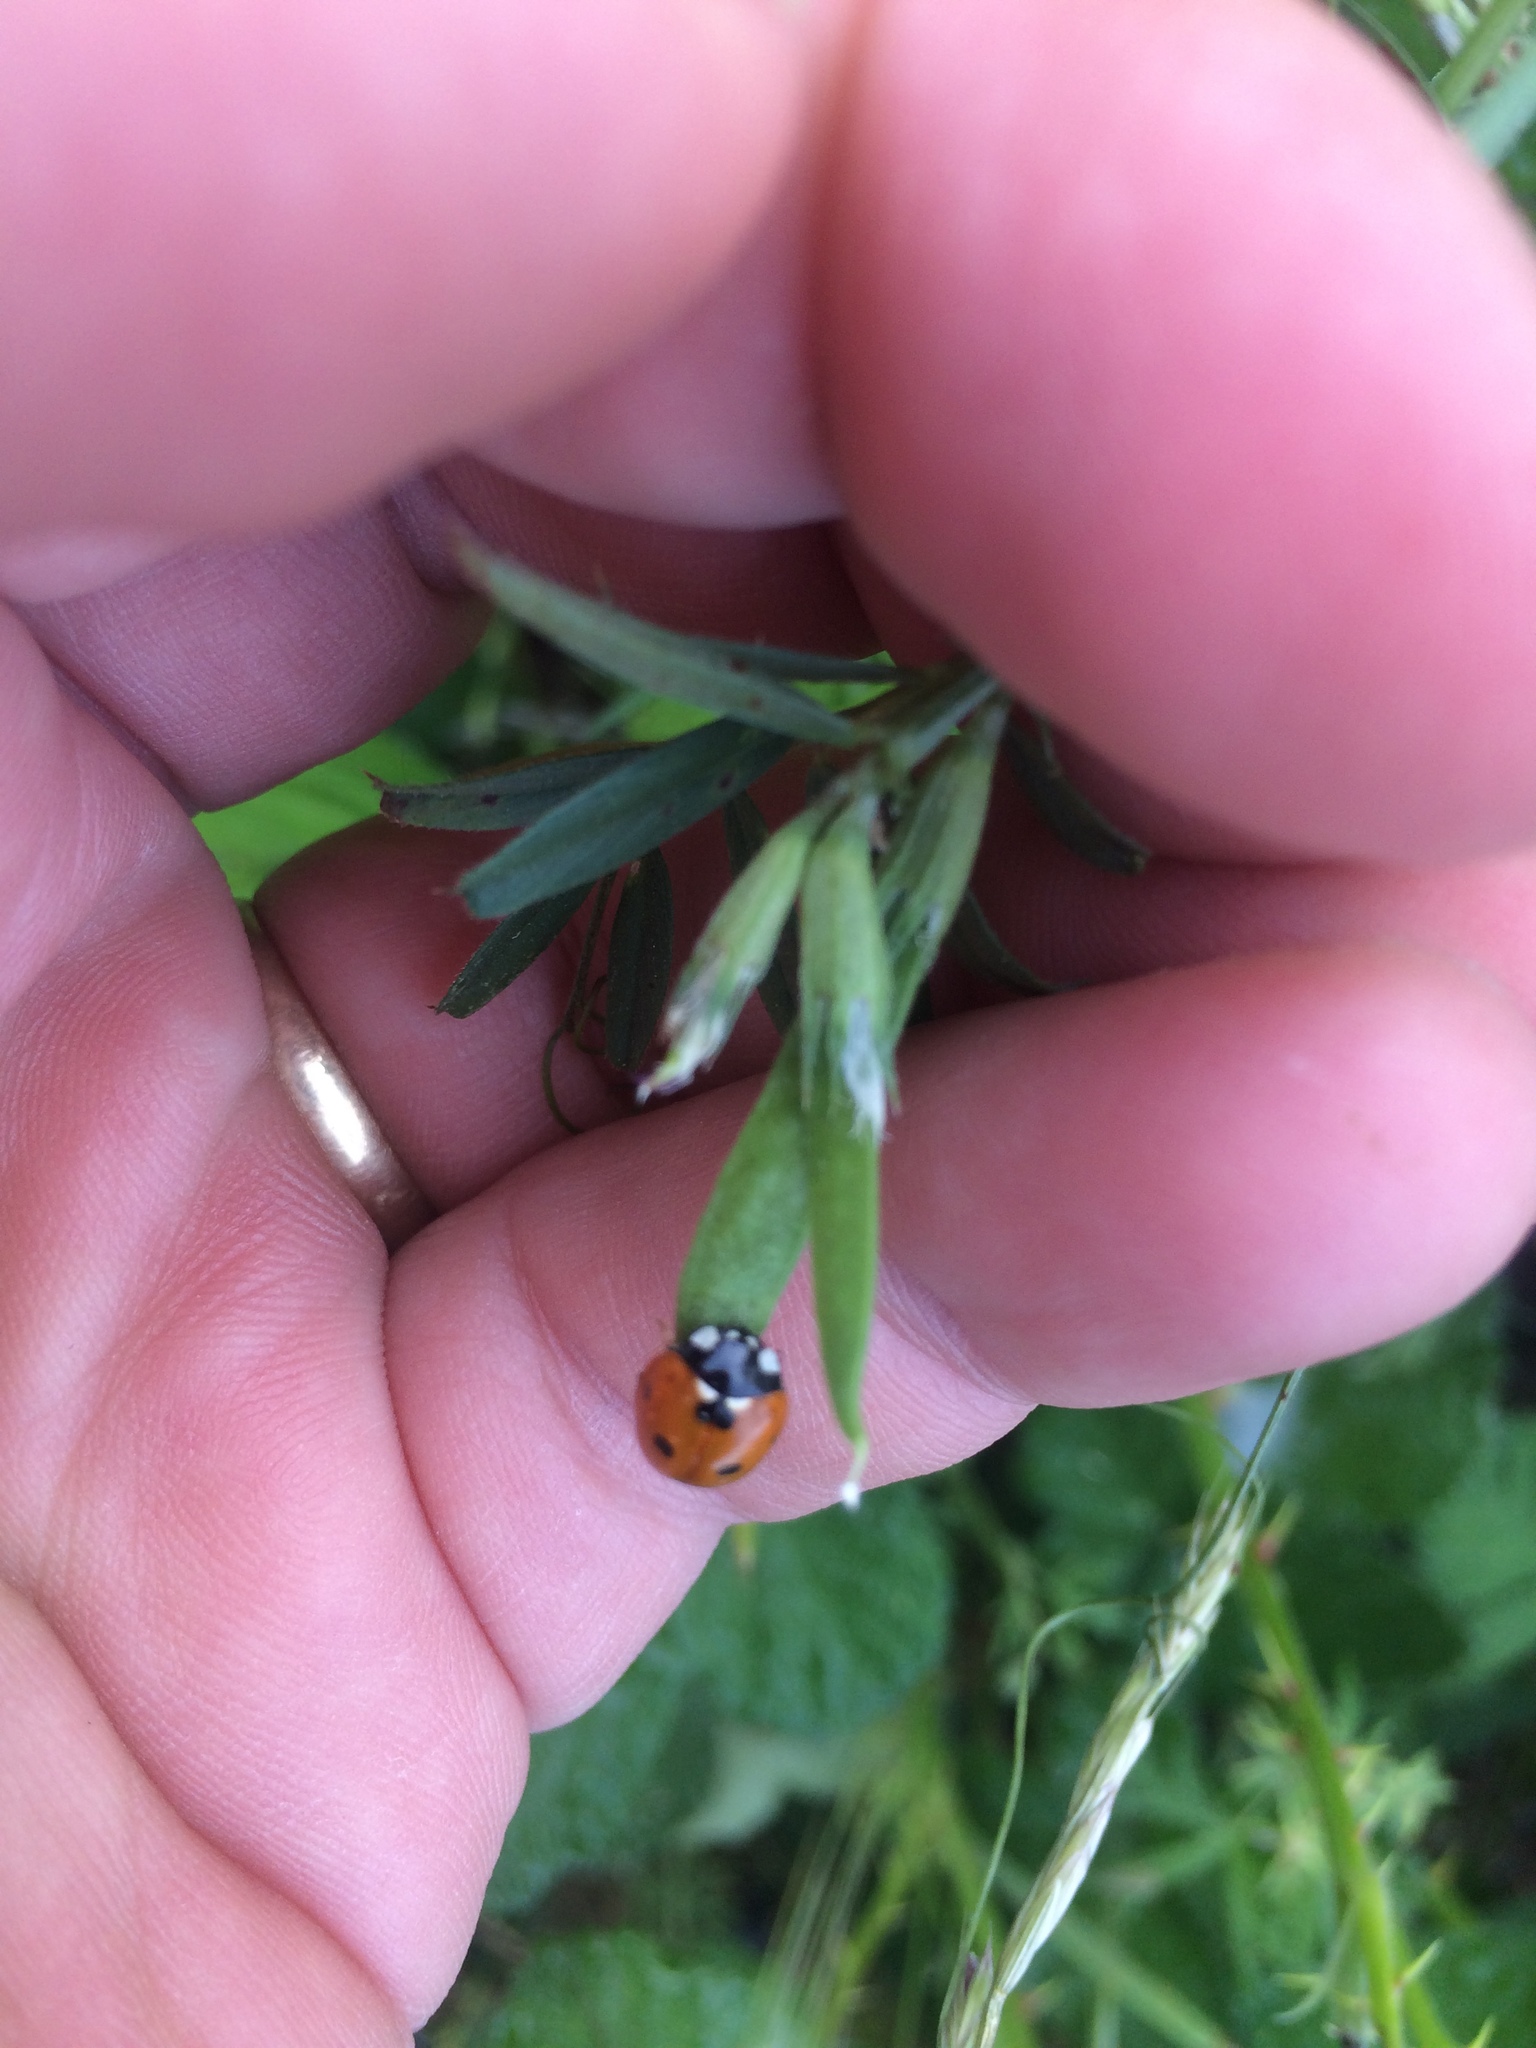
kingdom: Animalia
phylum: Arthropoda
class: Insecta
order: Coleoptera
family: Coccinellidae
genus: Coccinella
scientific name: Coccinella septempunctata
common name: Sevenspotted lady beetle
